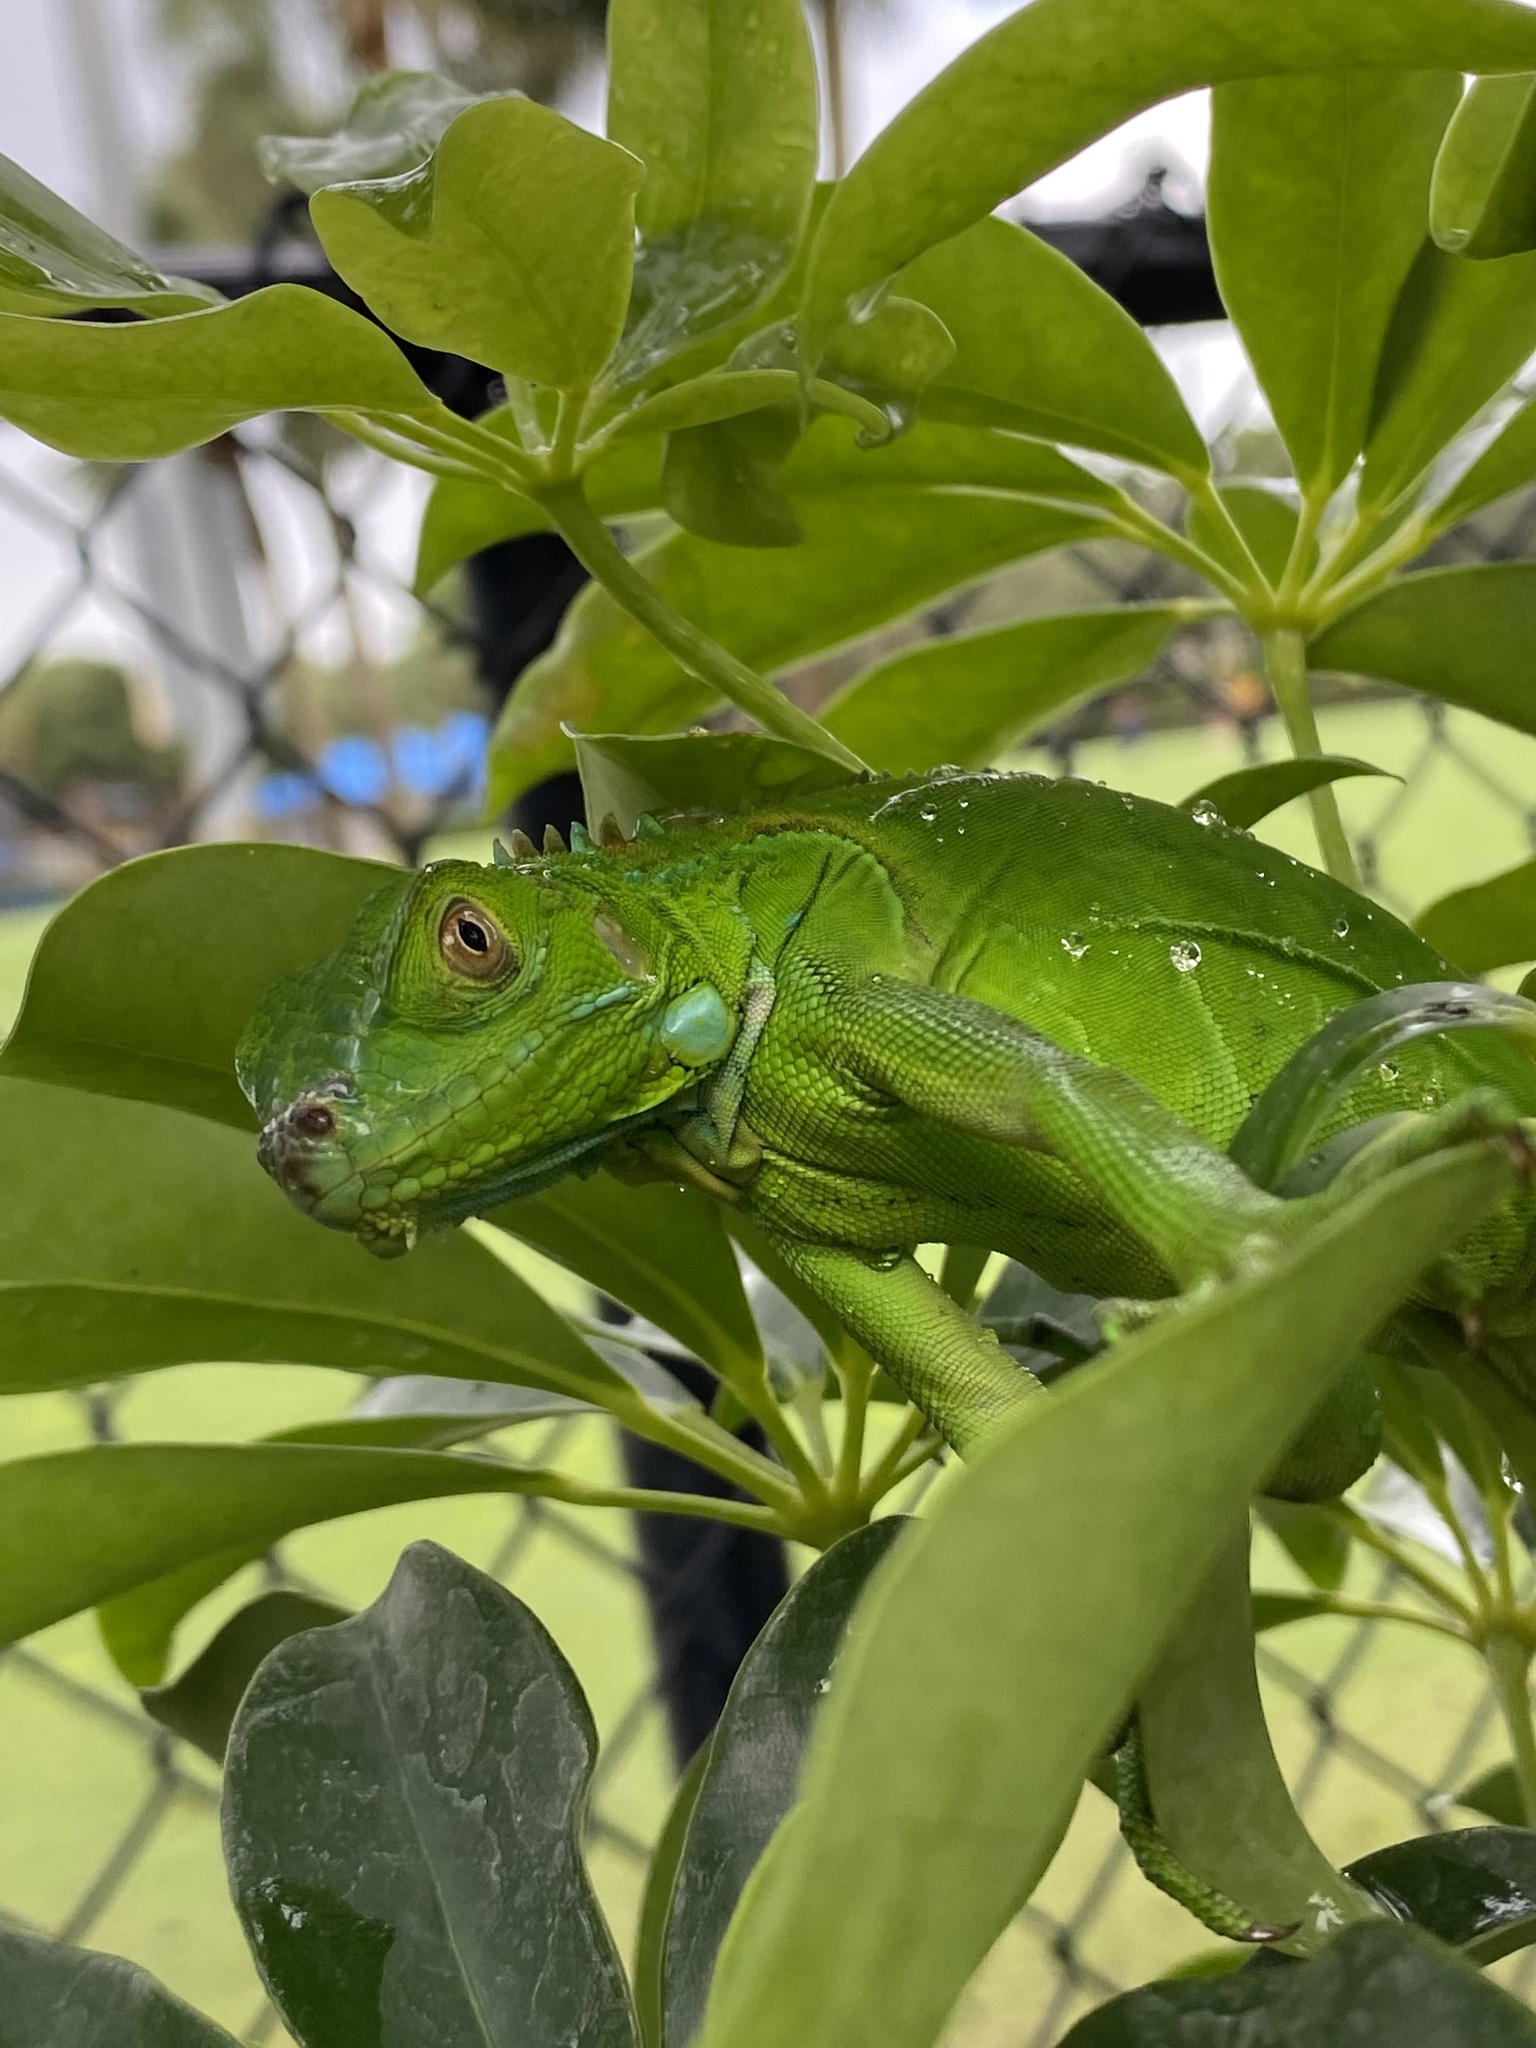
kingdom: Animalia
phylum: Chordata
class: Squamata
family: Iguanidae
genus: Iguana
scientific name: Iguana iguana
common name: Green iguana
